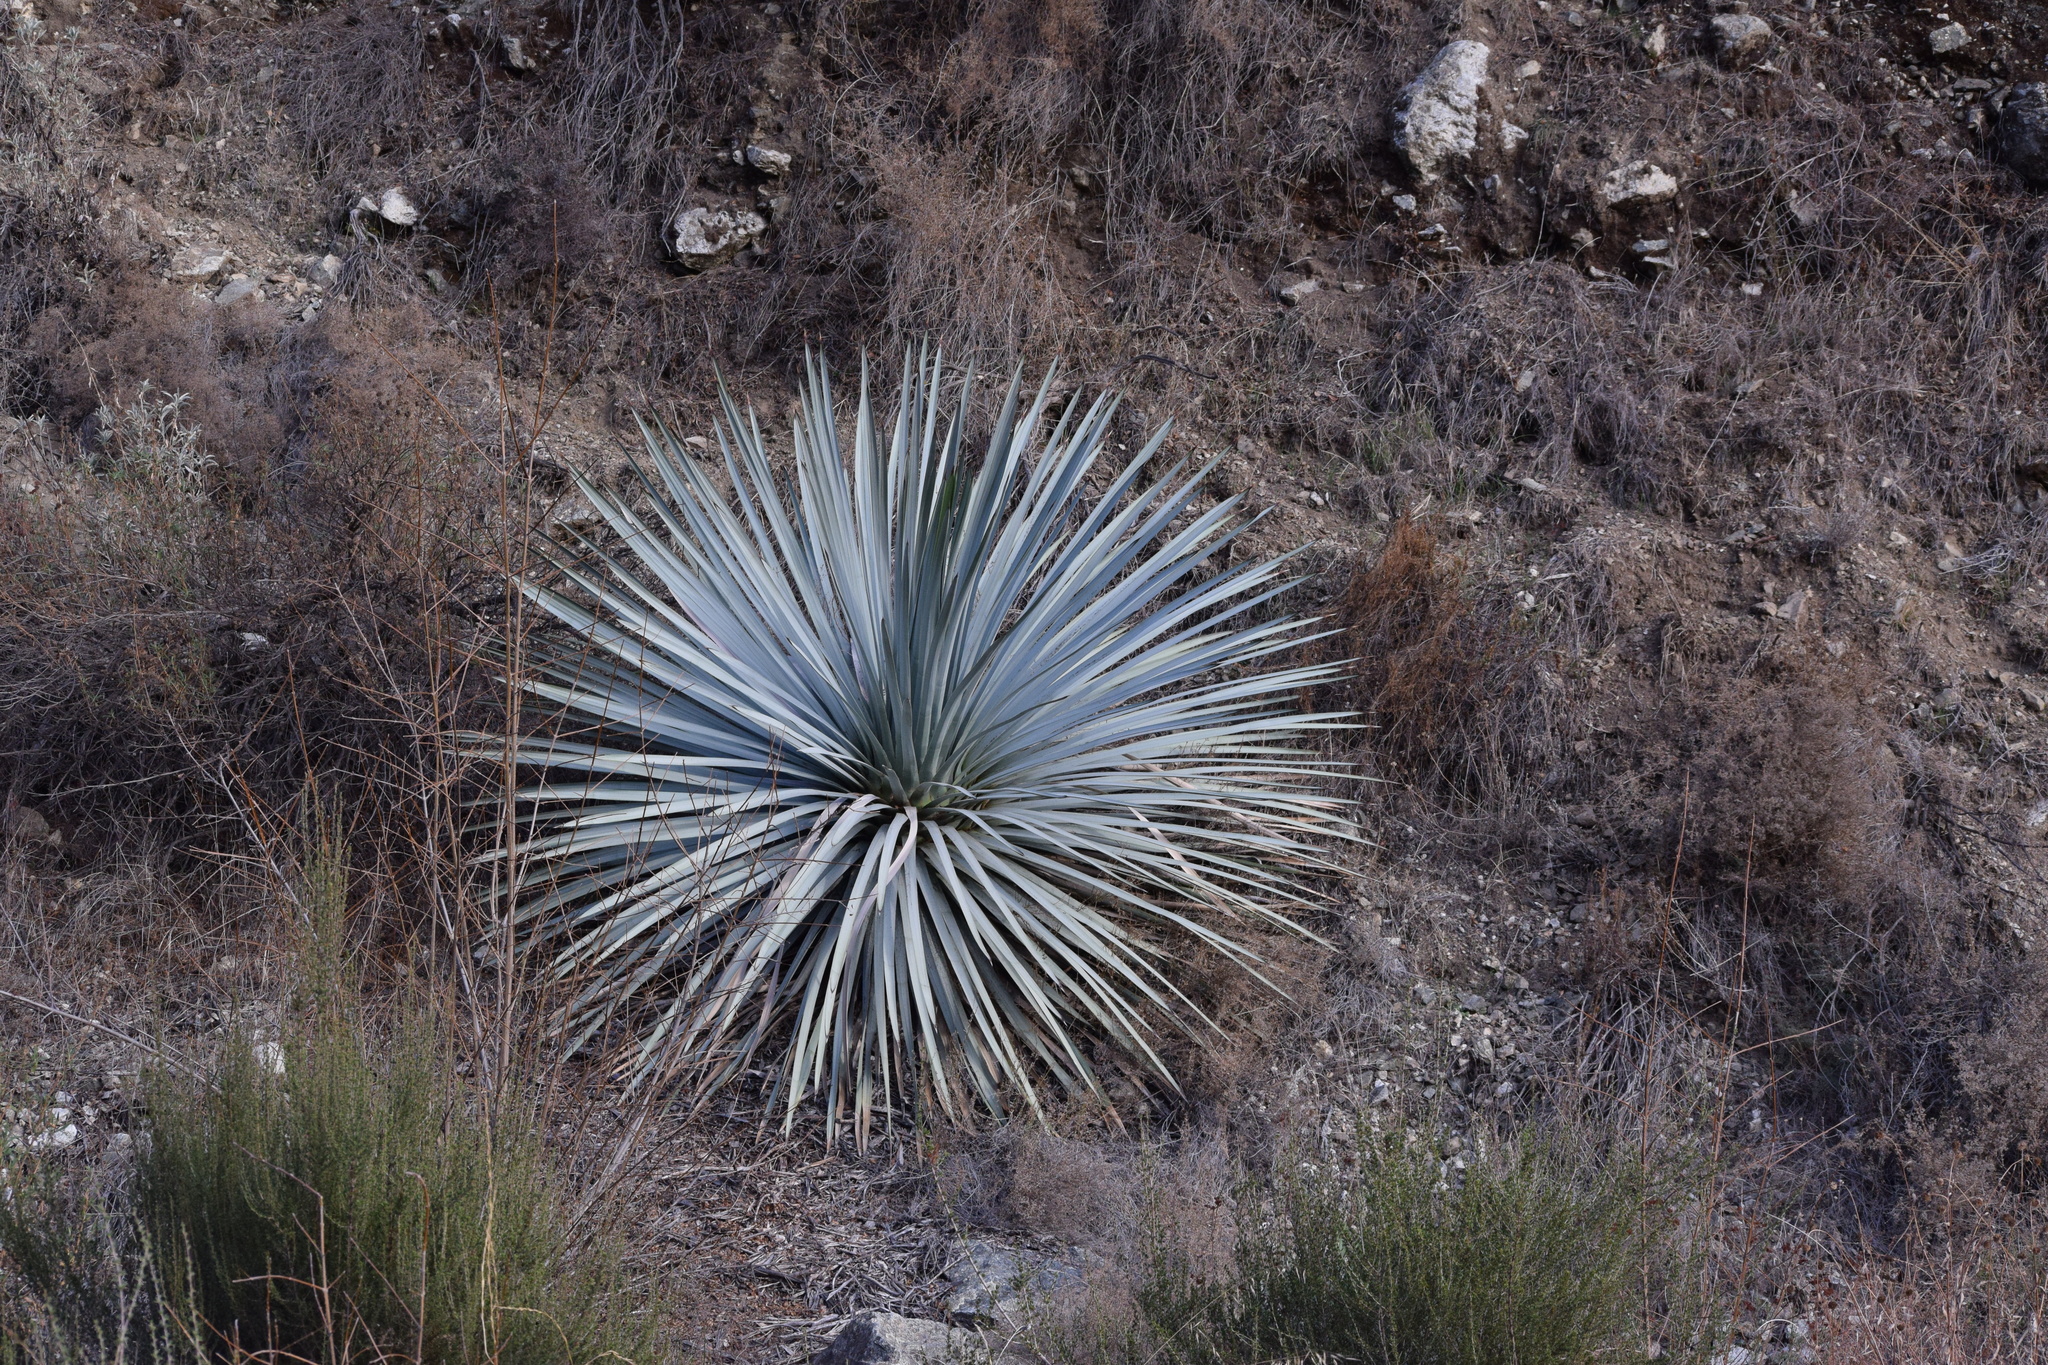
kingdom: Plantae
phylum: Tracheophyta
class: Liliopsida
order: Asparagales
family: Asparagaceae
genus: Hesperoyucca
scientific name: Hesperoyucca whipplei
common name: Our lord's-candle
